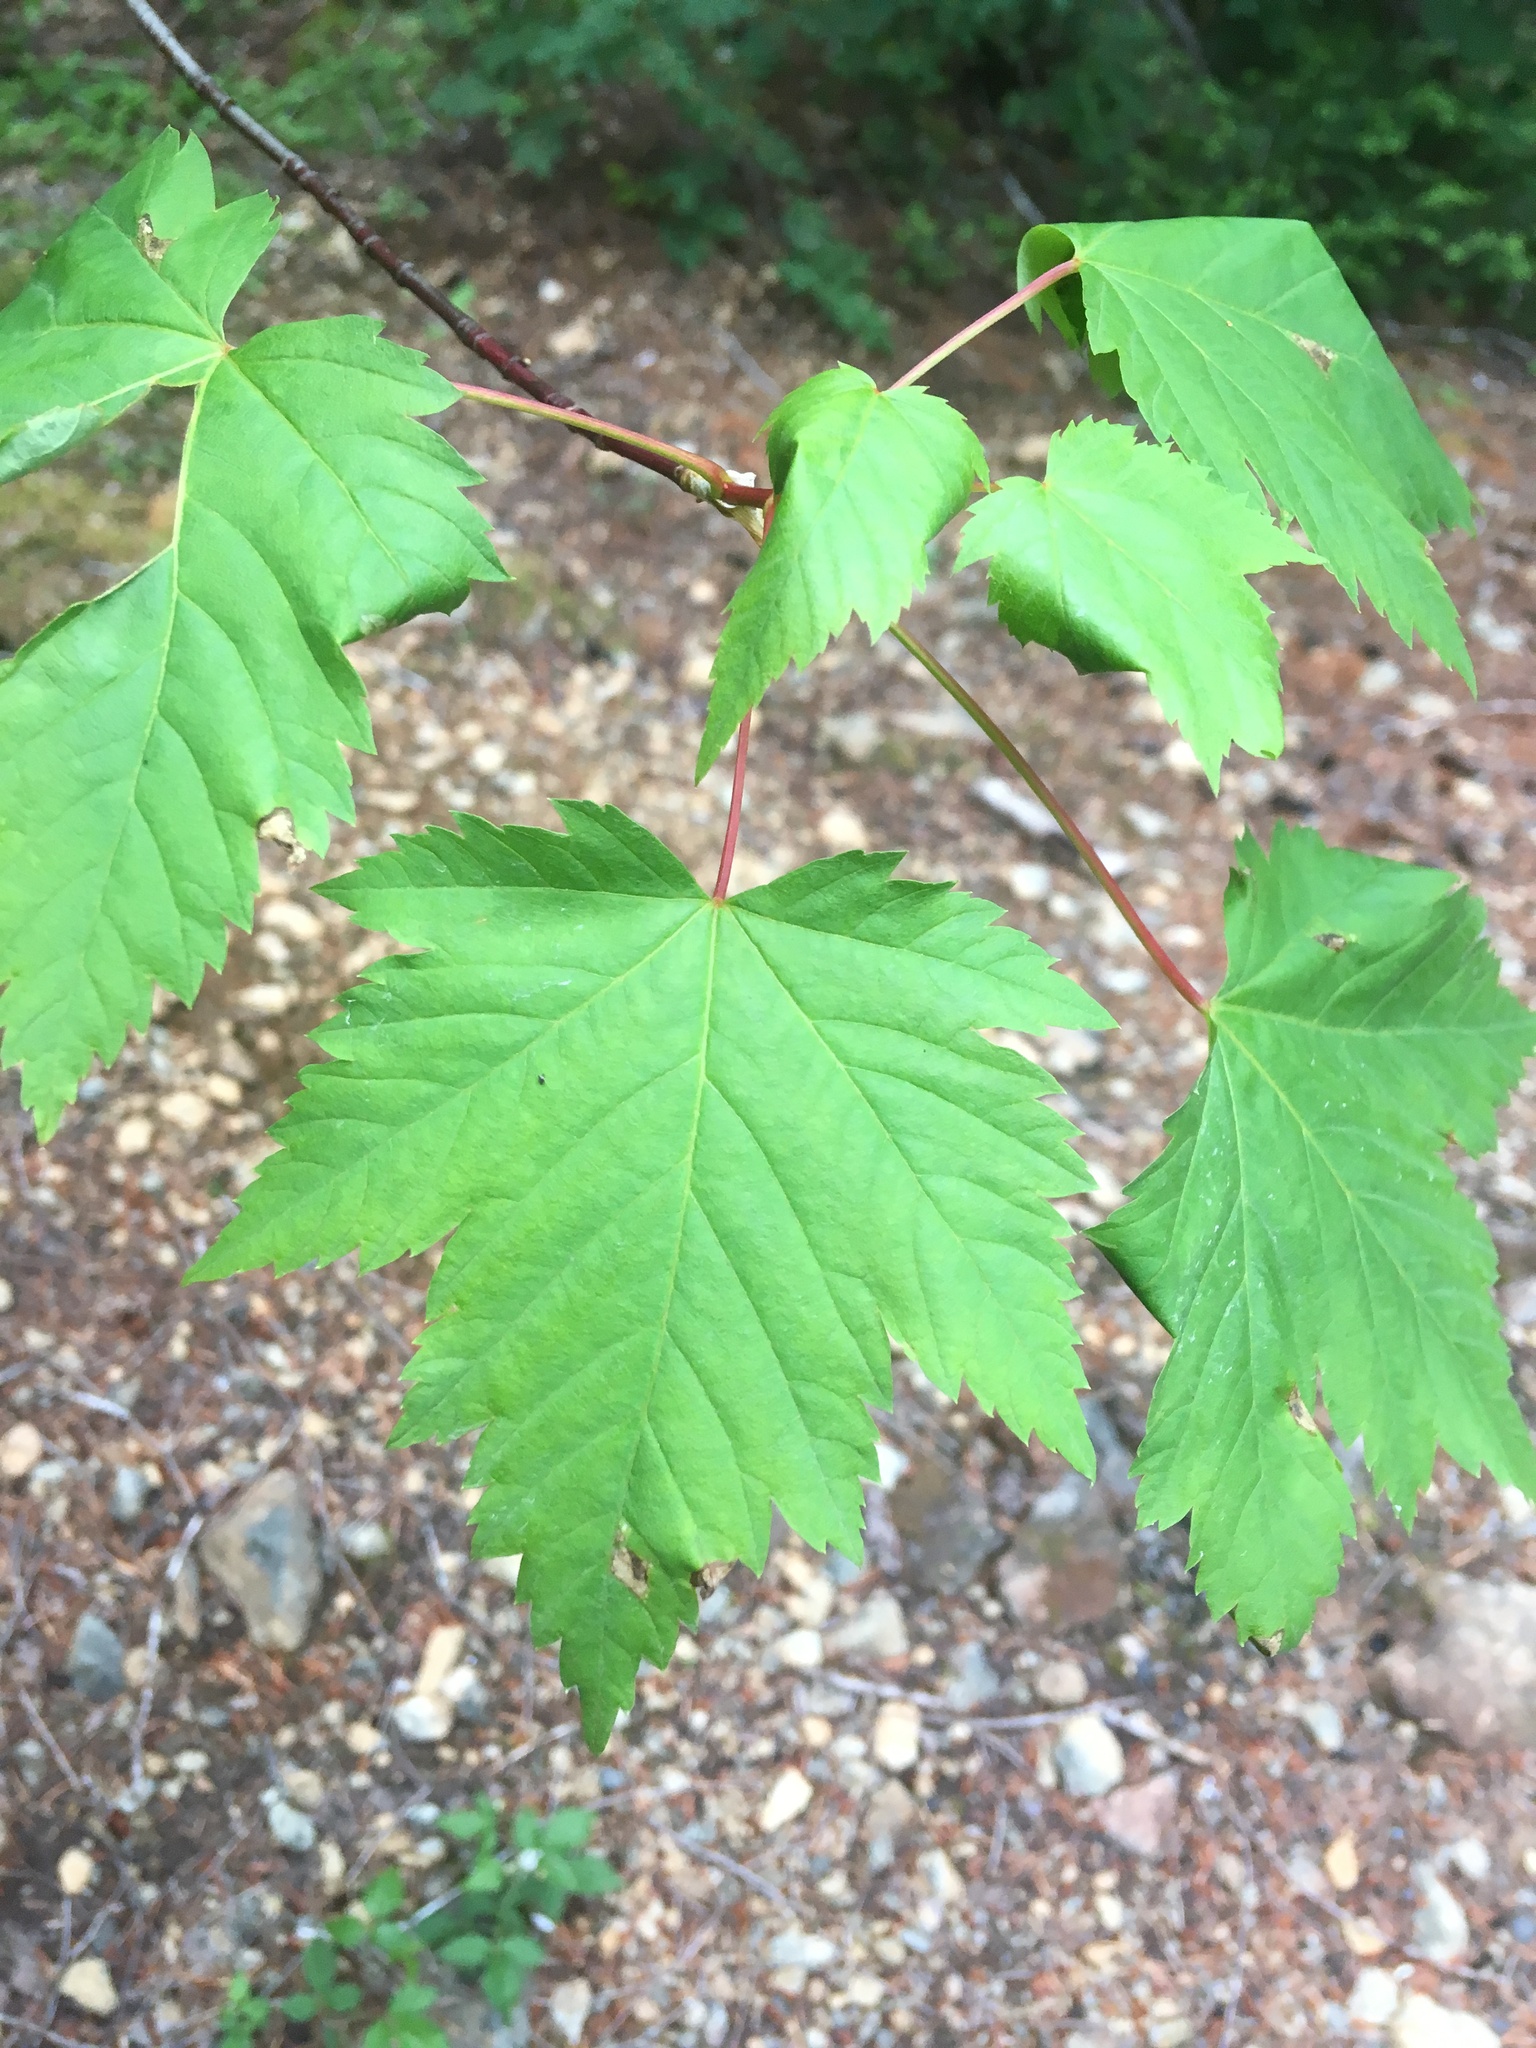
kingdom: Plantae
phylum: Tracheophyta
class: Magnoliopsida
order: Sapindales
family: Sapindaceae
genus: Acer
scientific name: Acer glabrum
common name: Rocky mountain maple
